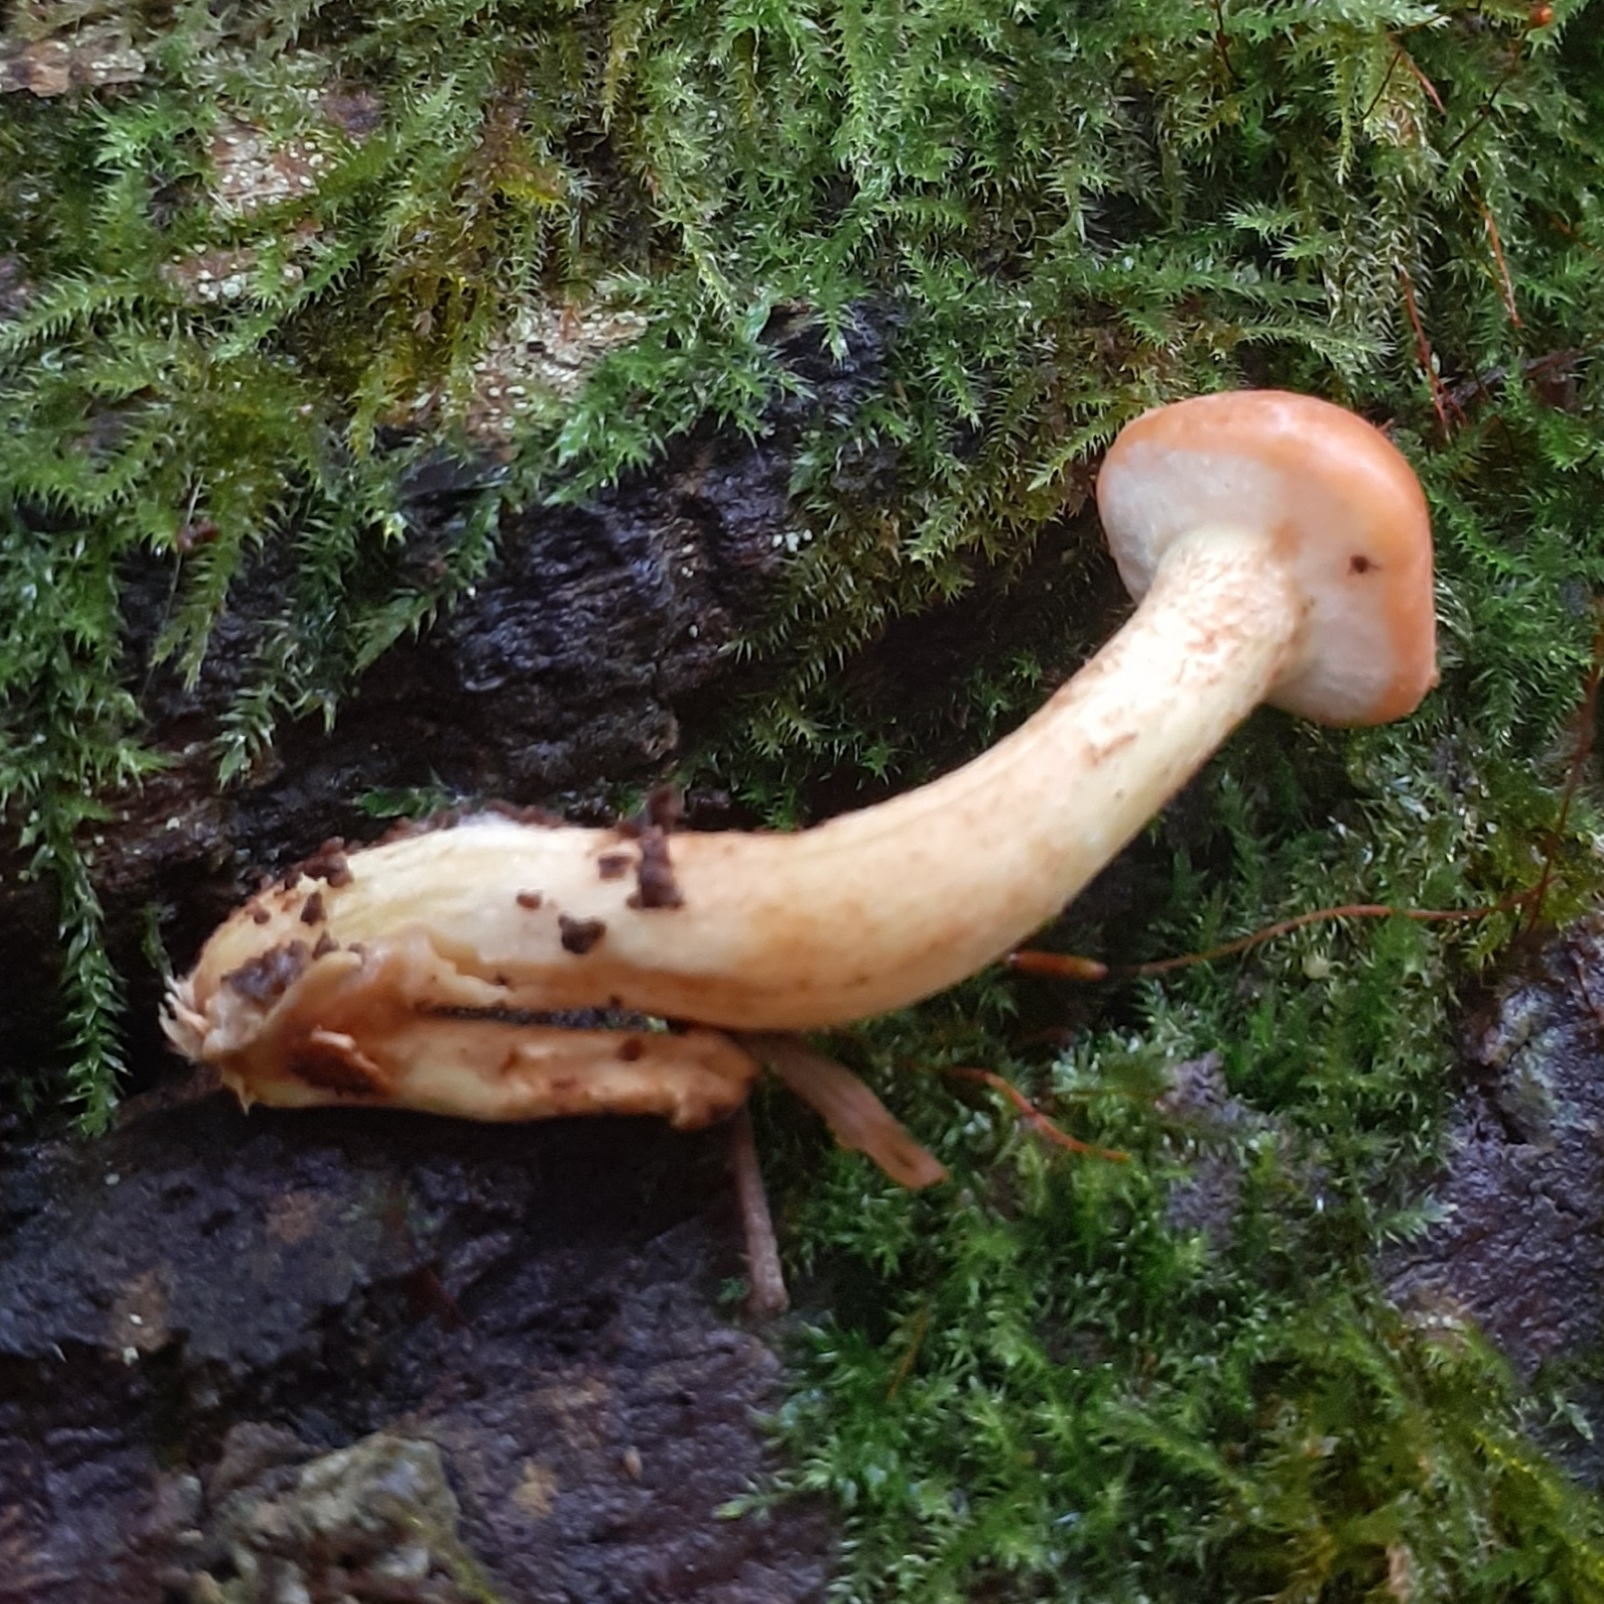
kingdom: Fungi
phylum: Basidiomycota
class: Agaricomycetes
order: Agaricales
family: Strophariaceae
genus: Hypholoma
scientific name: Hypholoma fasciculare
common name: Sulphur tuft
